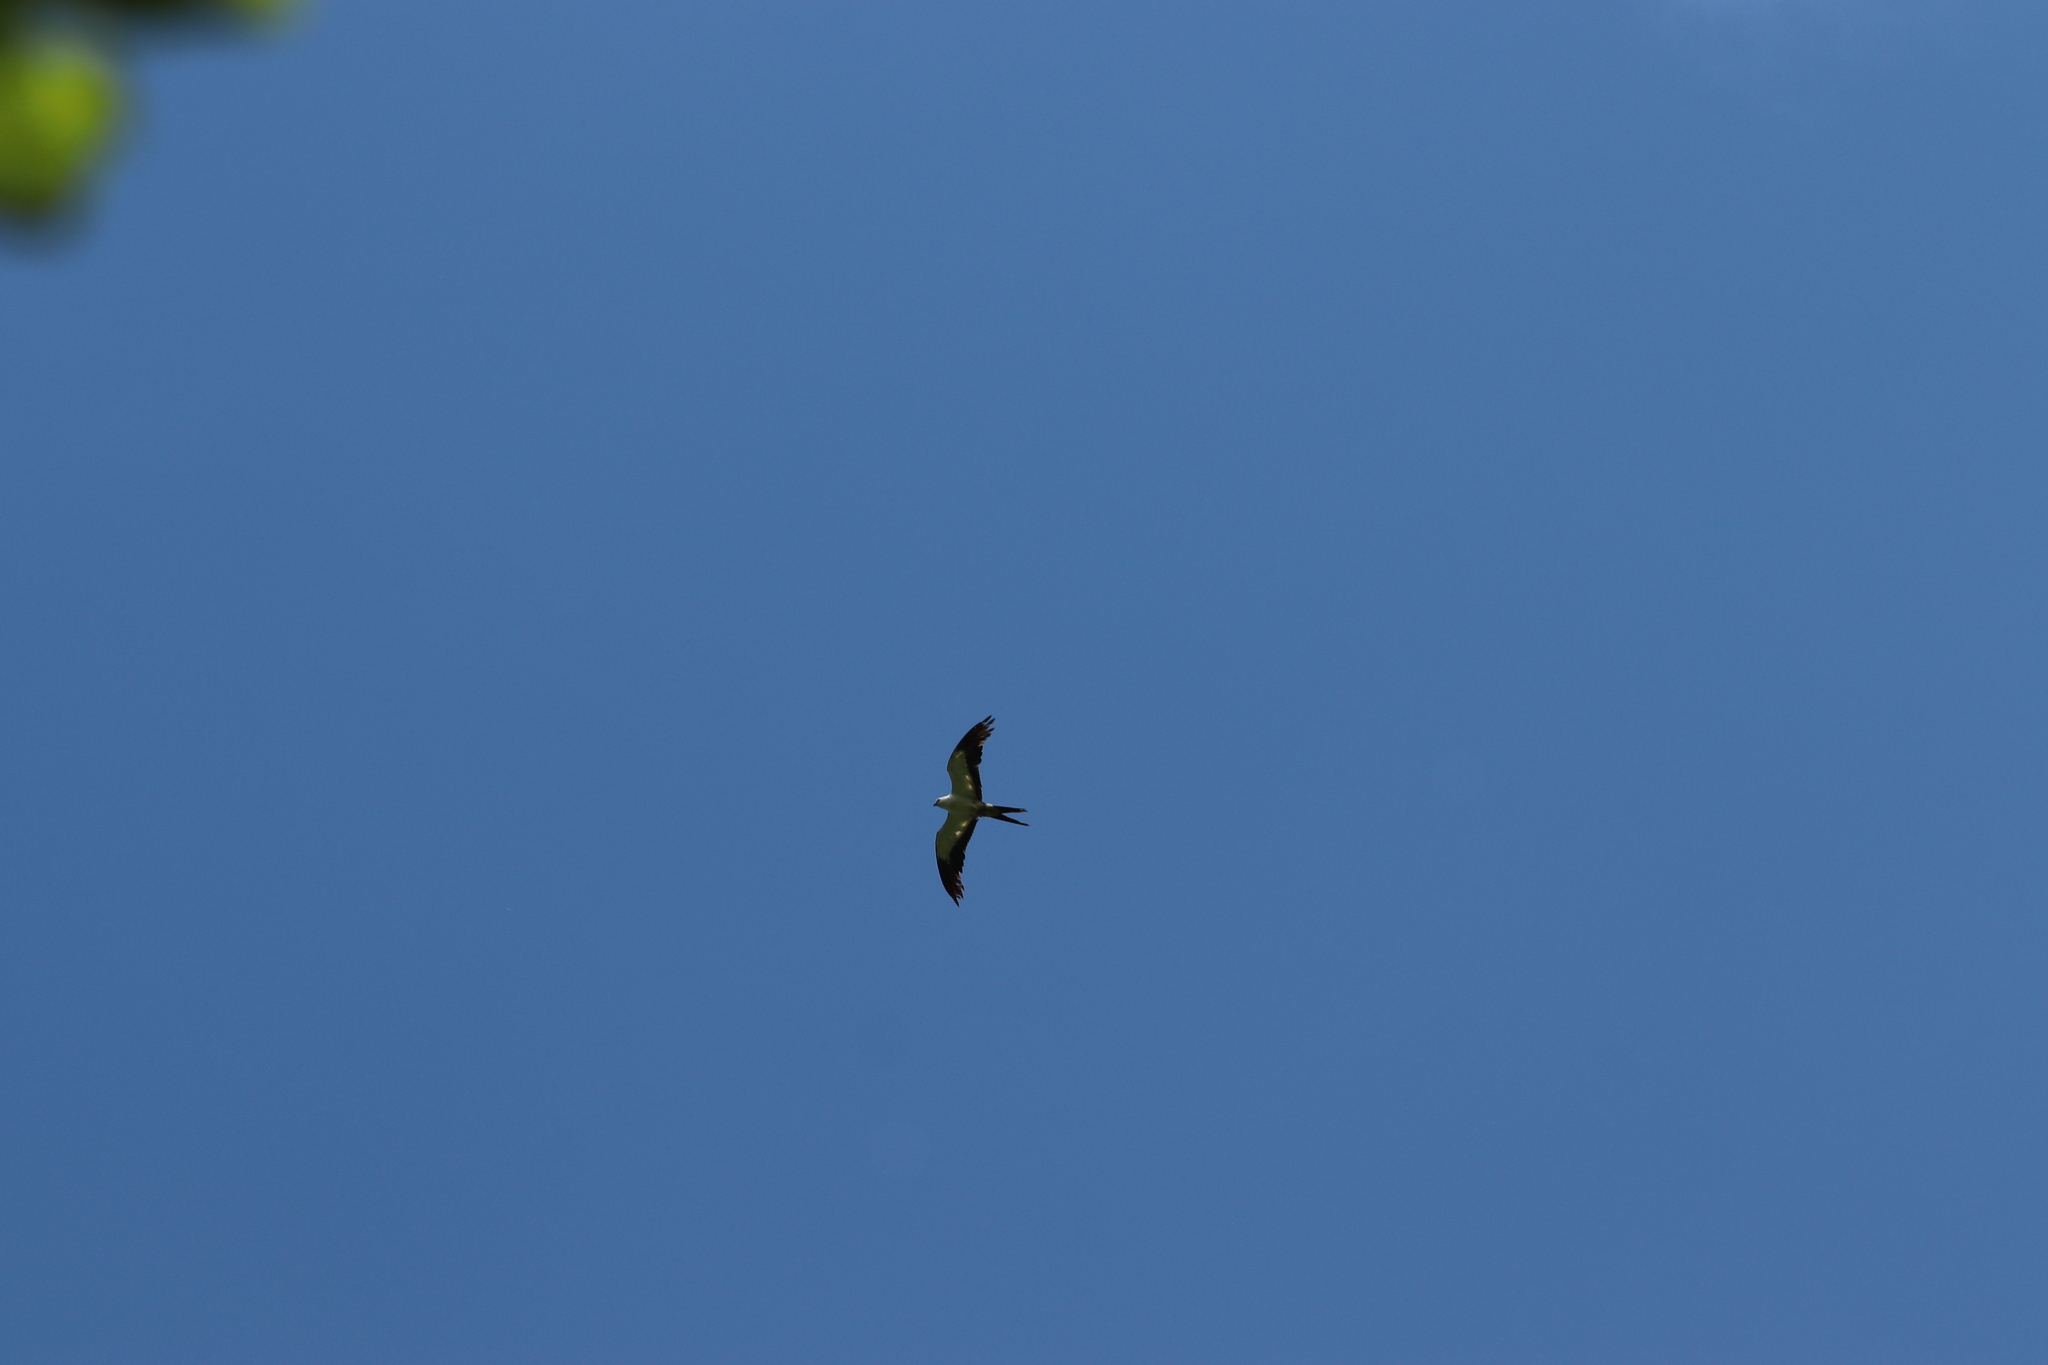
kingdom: Animalia
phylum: Chordata
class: Aves
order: Accipitriformes
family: Accipitridae
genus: Elanoides
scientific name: Elanoides forficatus
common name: Swallow-tailed kite
